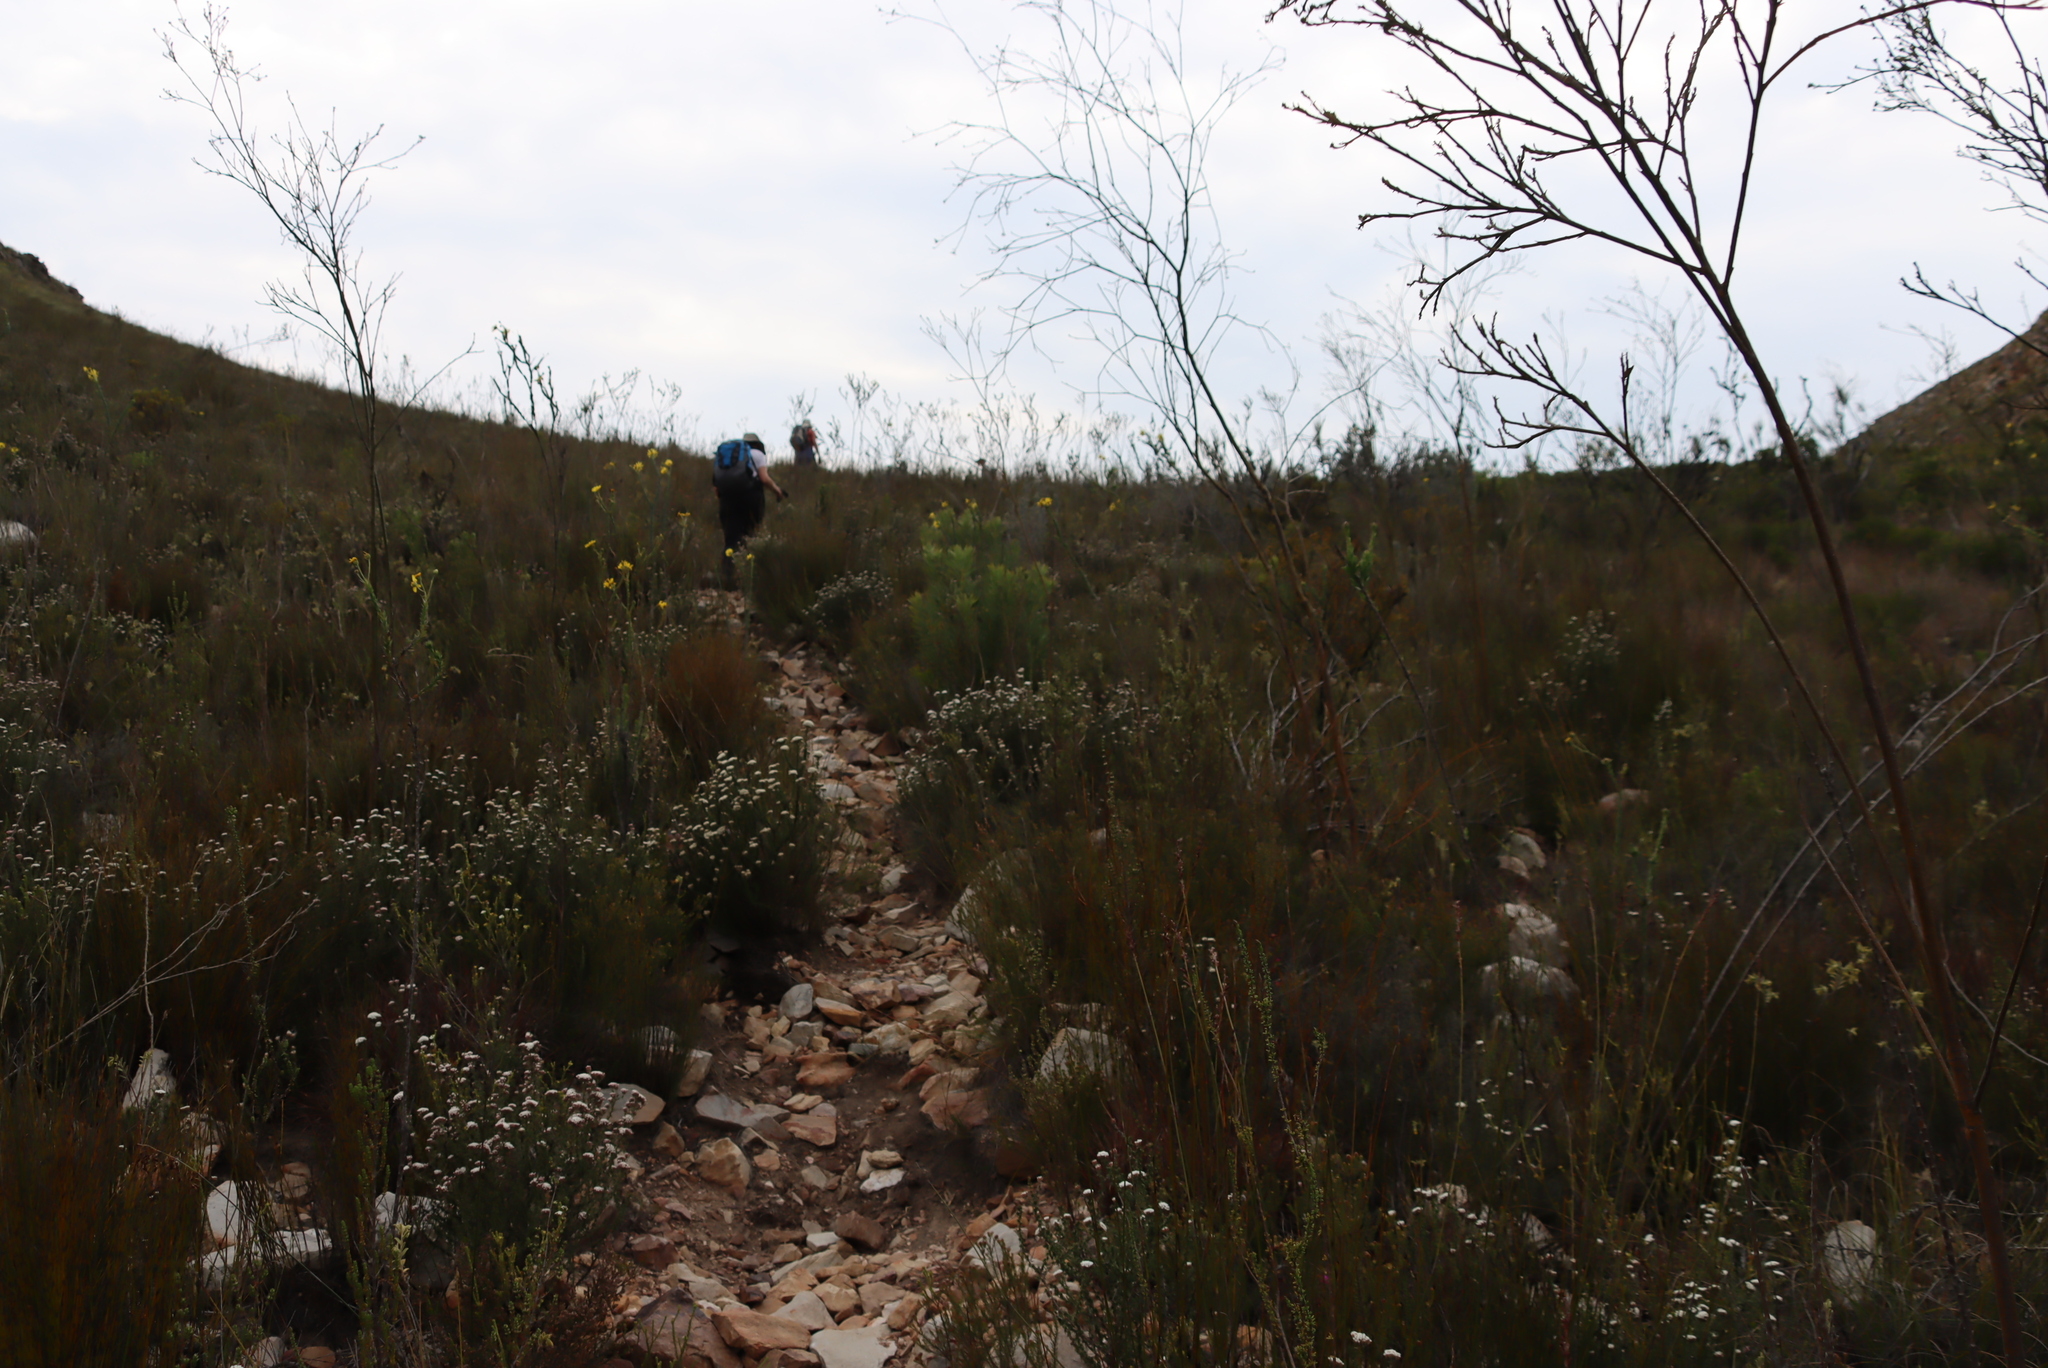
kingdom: Plantae
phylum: Tracheophyta
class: Magnoliopsida
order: Santalales
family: Thesiaceae
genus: Thesium
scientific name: Thesium strictum
